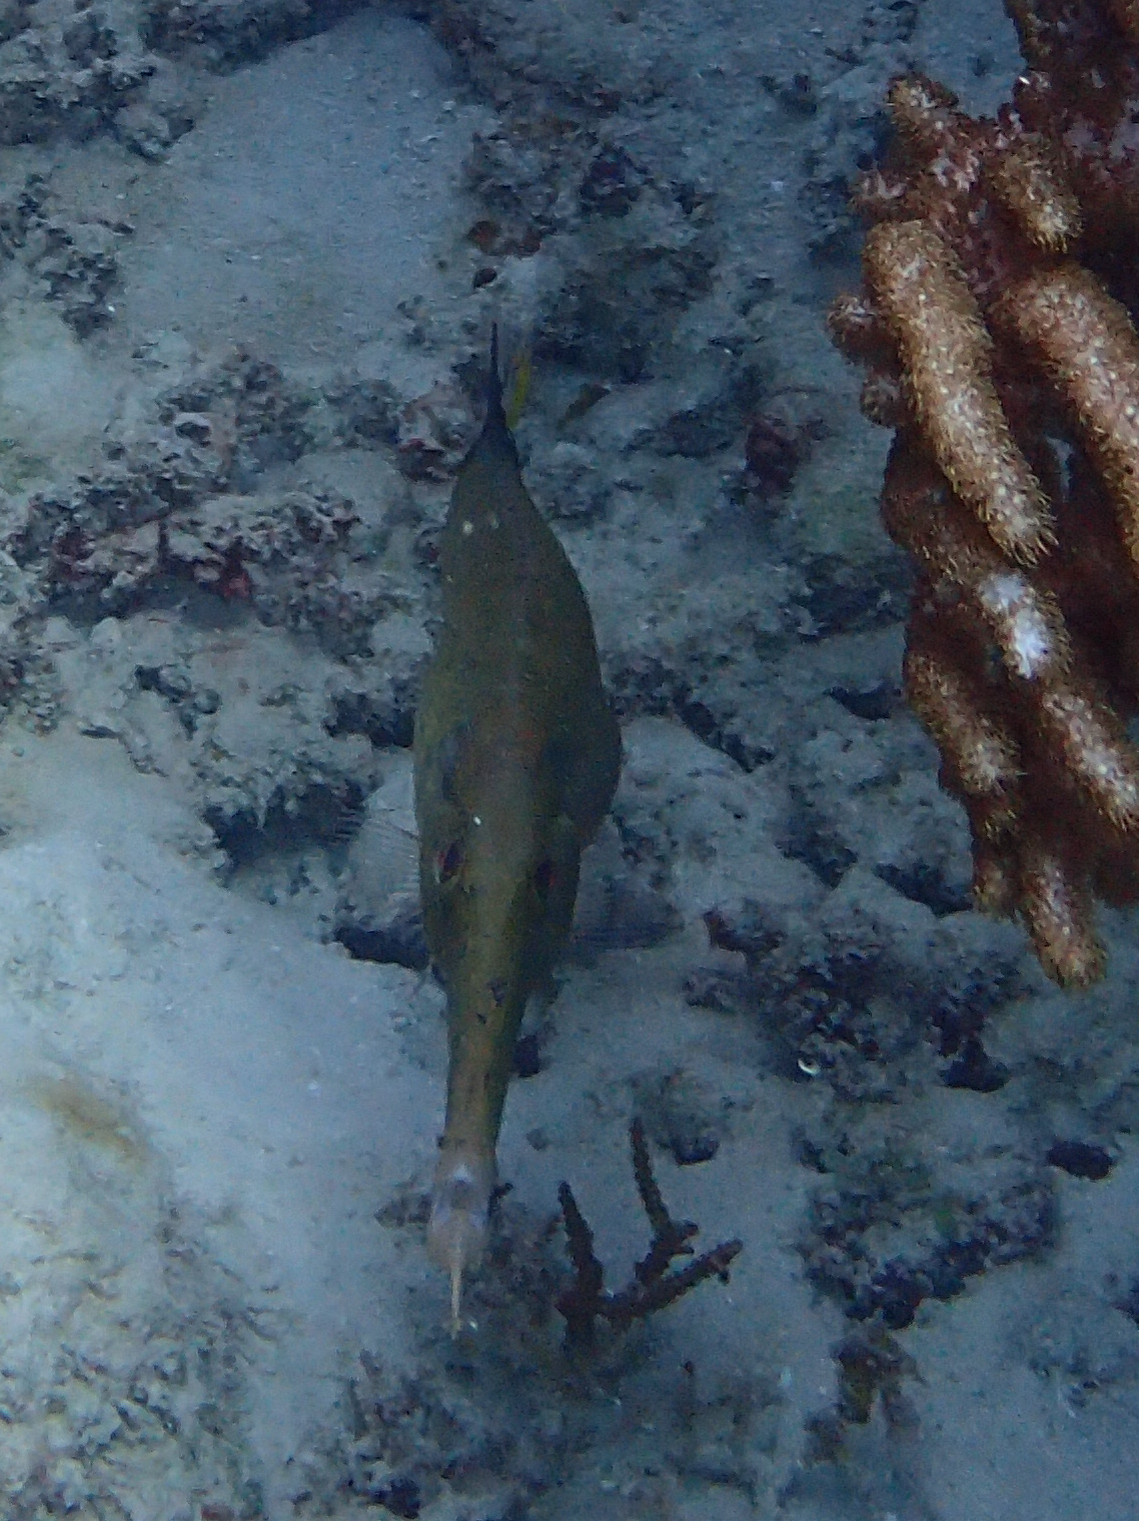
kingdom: Animalia
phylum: Chordata
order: Syngnathiformes
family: Aulostomidae
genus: Aulostomus
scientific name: Aulostomus chinensis
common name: Chinese trumpetfish
